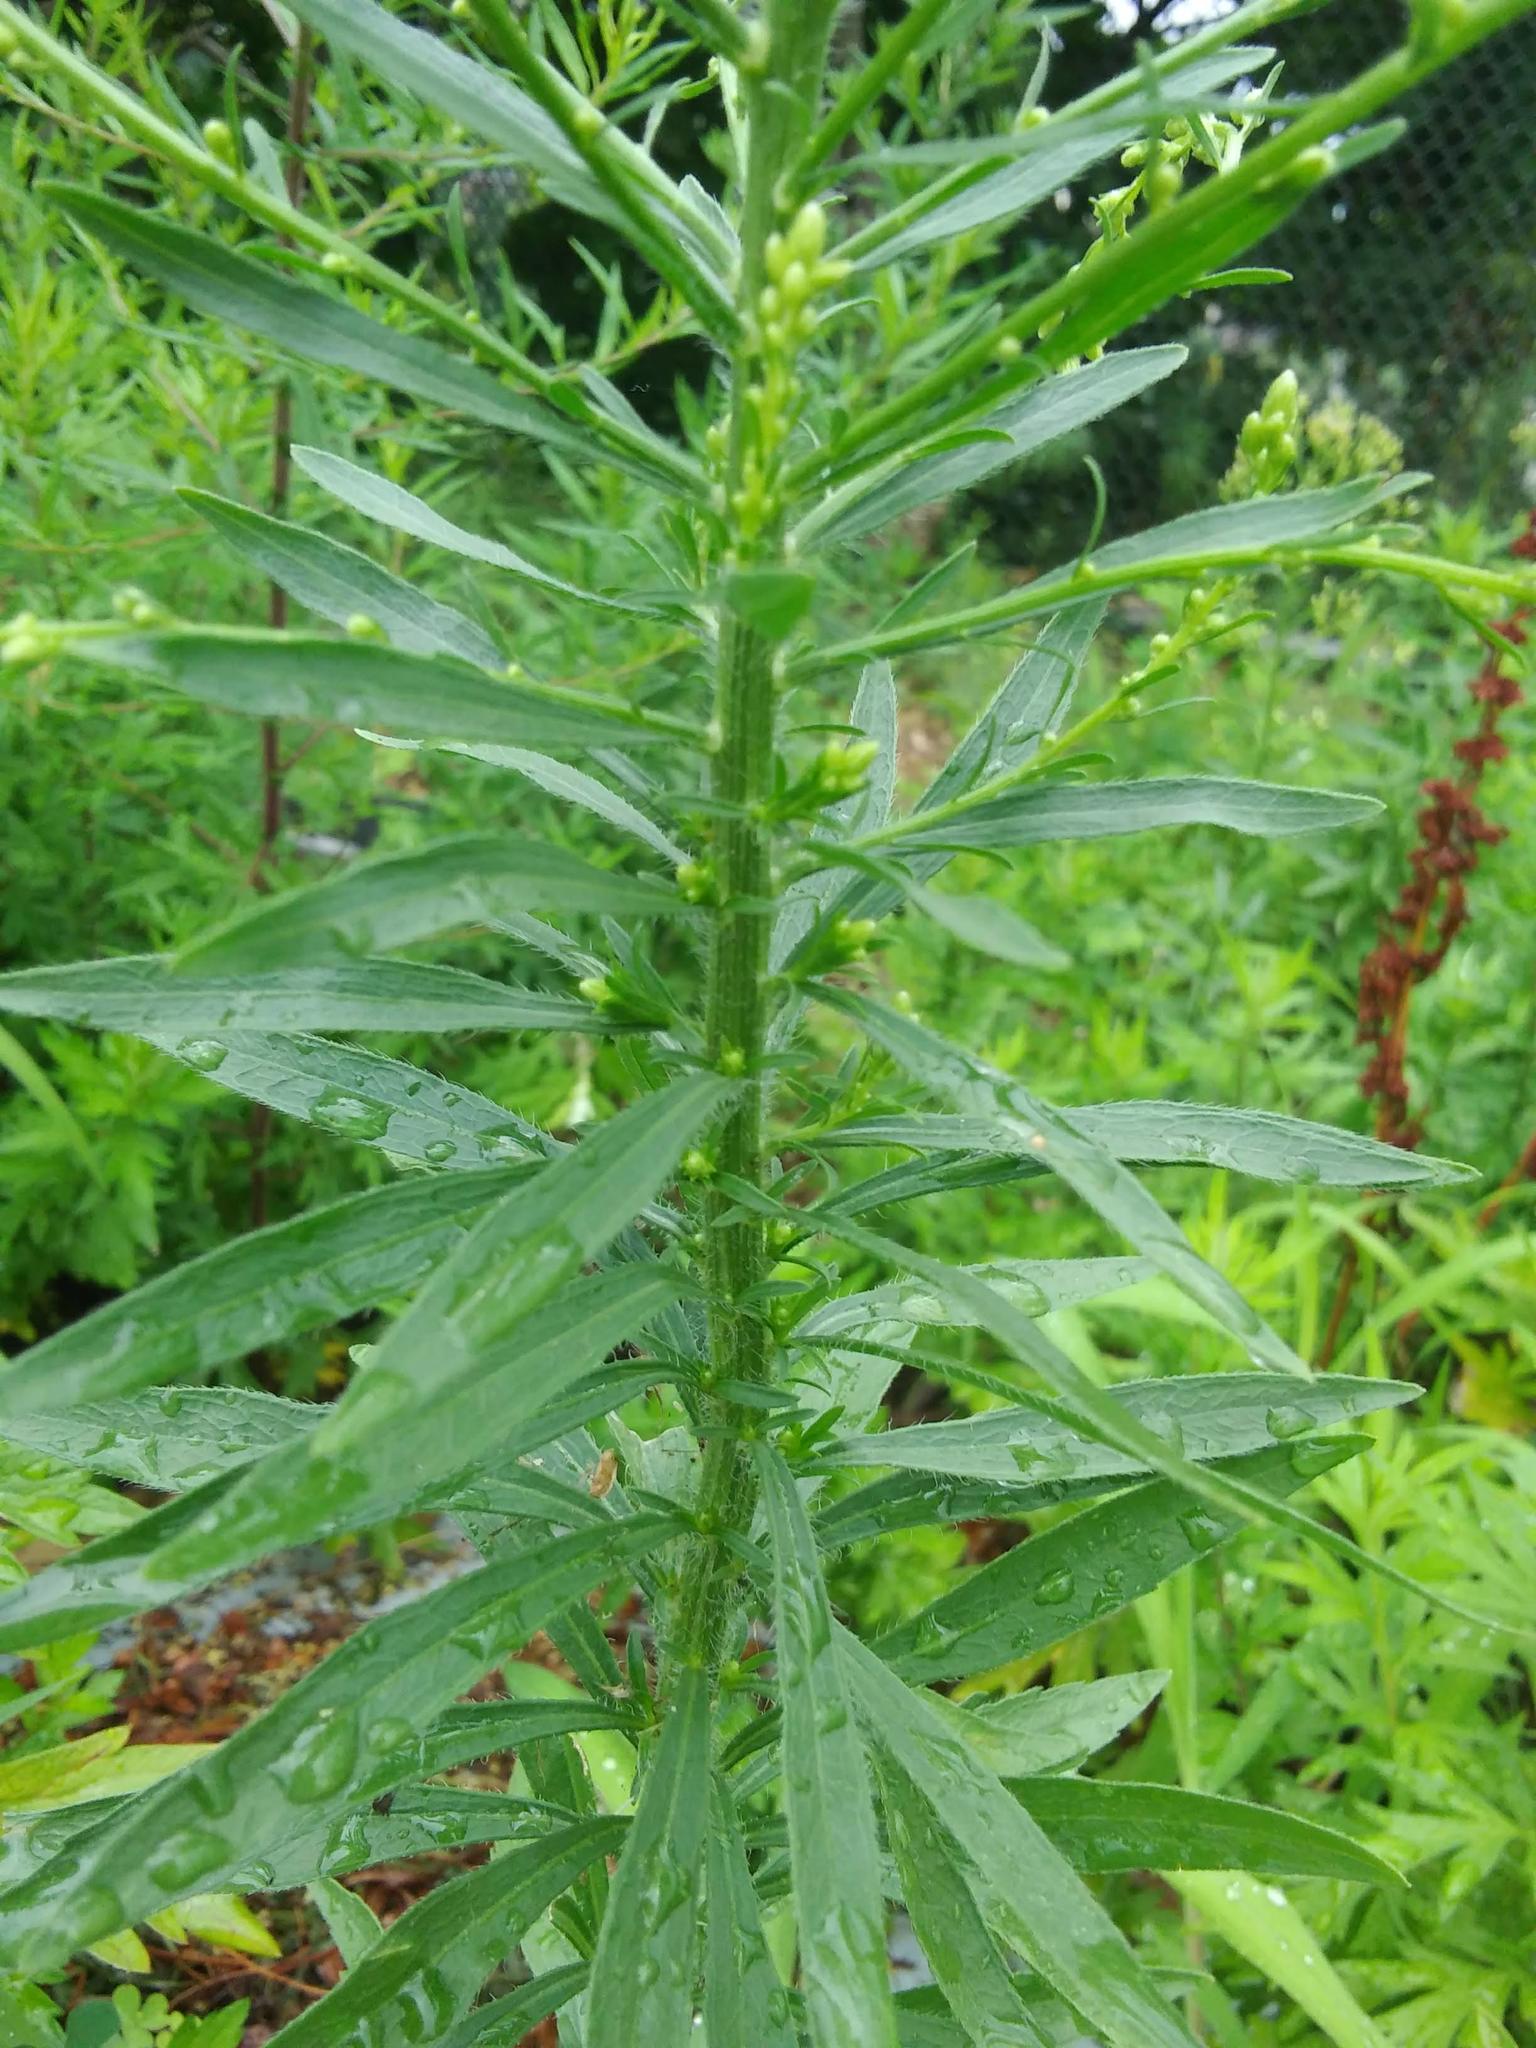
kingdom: Plantae
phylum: Tracheophyta
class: Magnoliopsida
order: Asterales
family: Asteraceae
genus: Erigeron
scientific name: Erigeron canadensis
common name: Canadian fleabane
